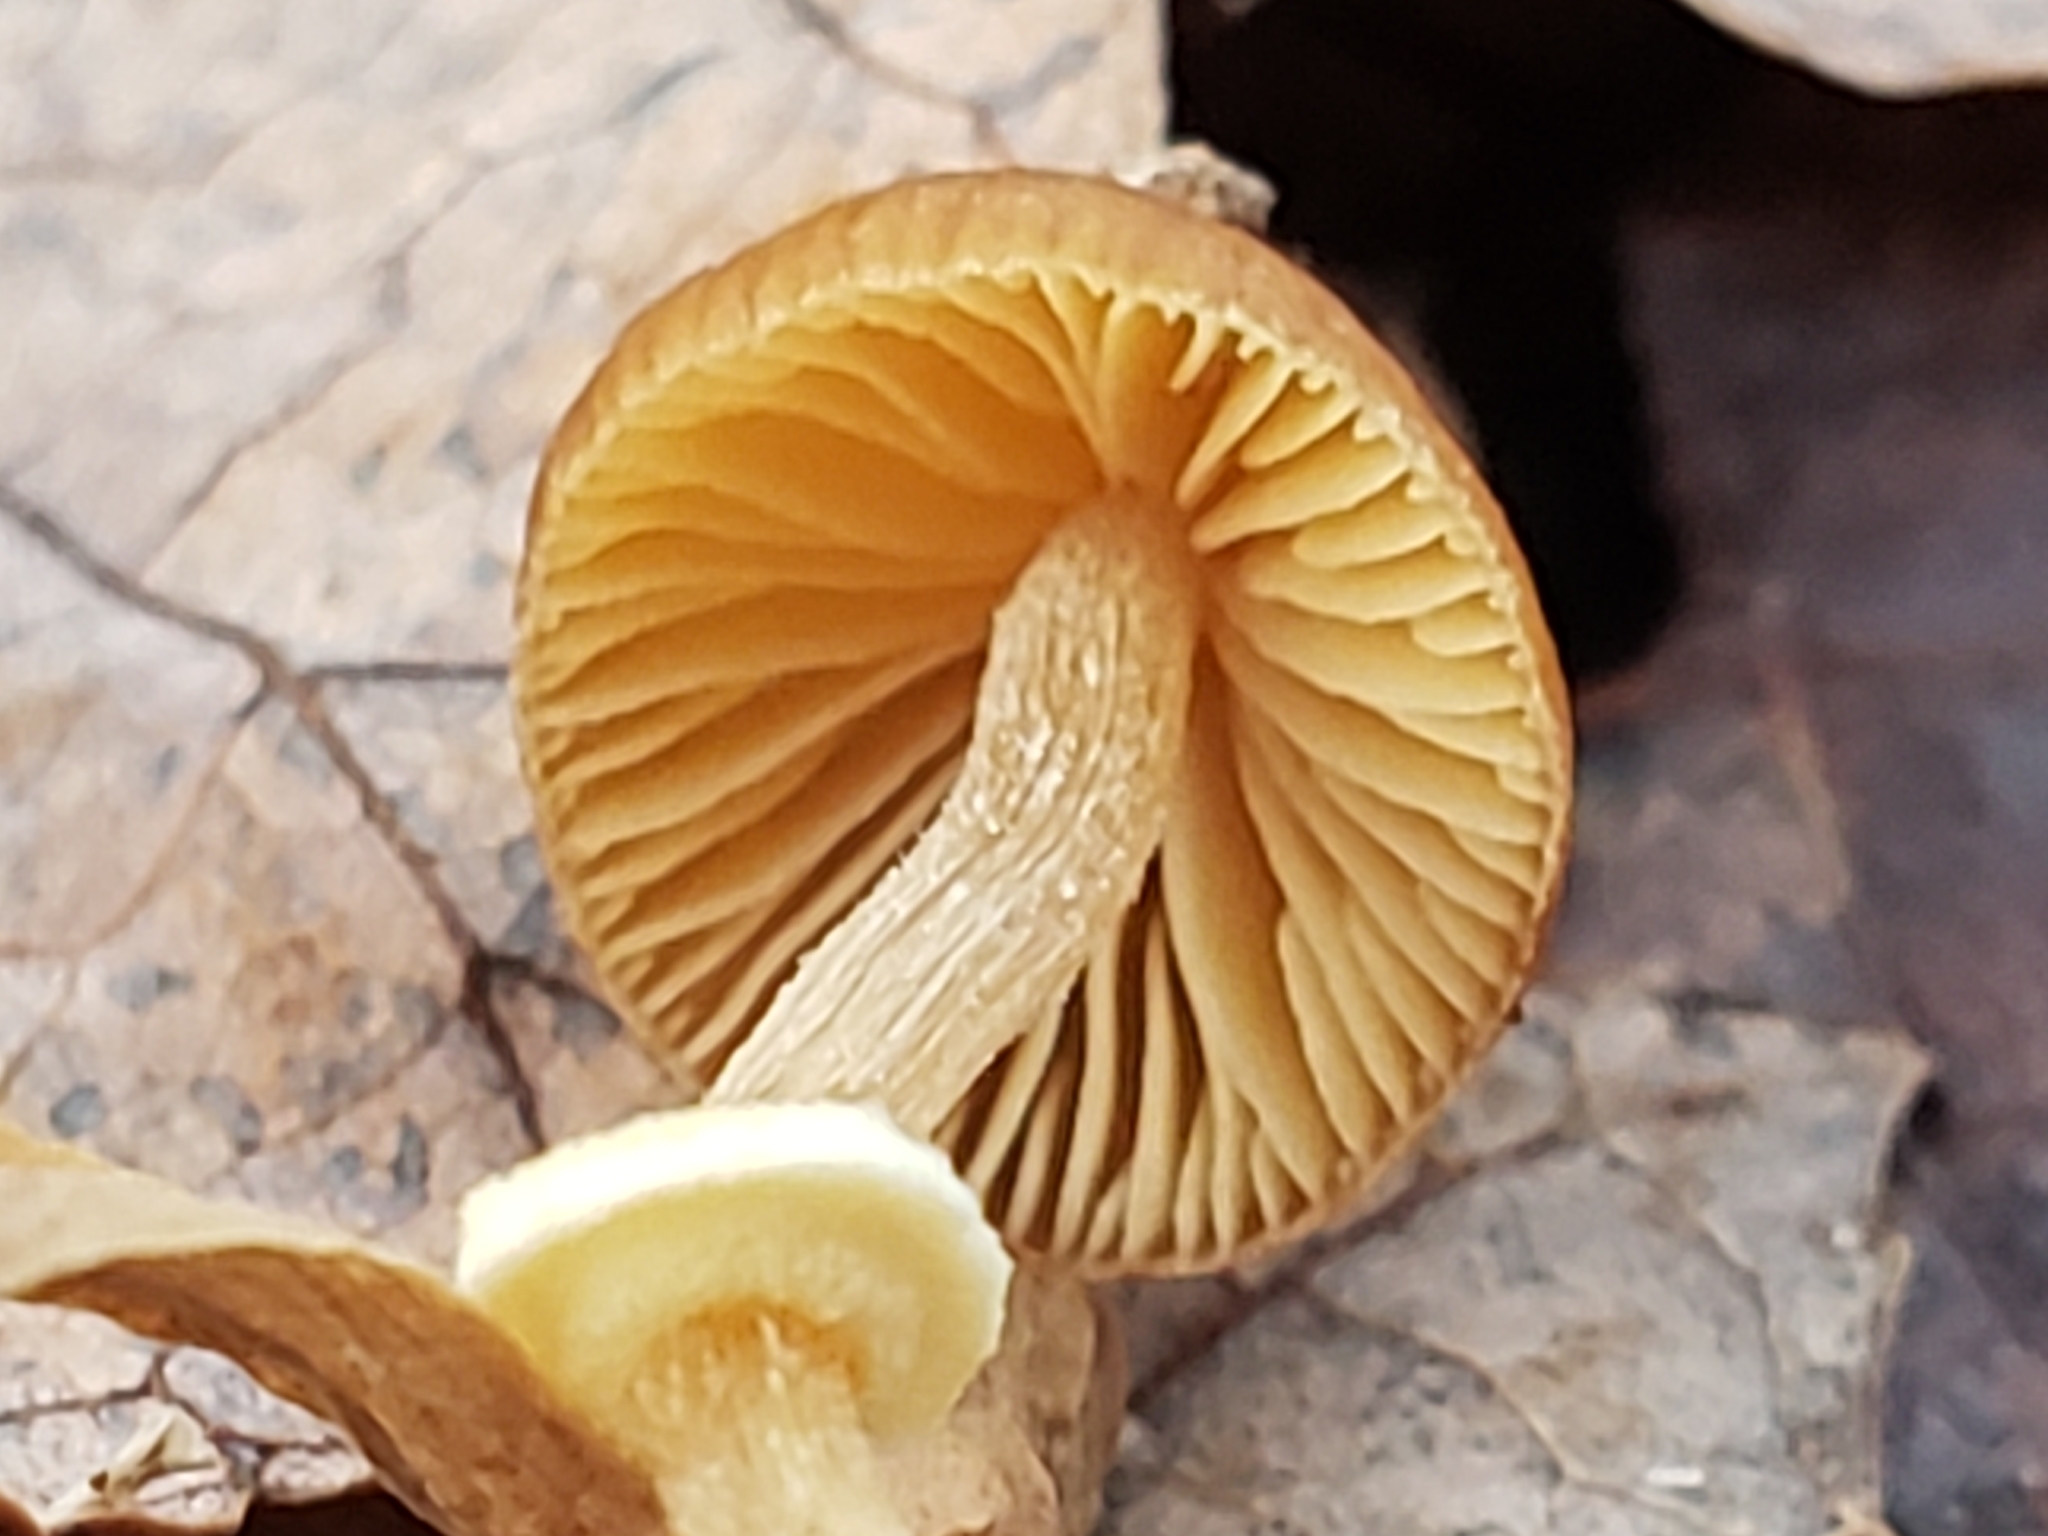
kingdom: Fungi
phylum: Basidiomycota
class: Agaricomycetes
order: Agaricales
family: Bolbitiaceae
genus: Conocybe
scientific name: Conocybe rugosa
